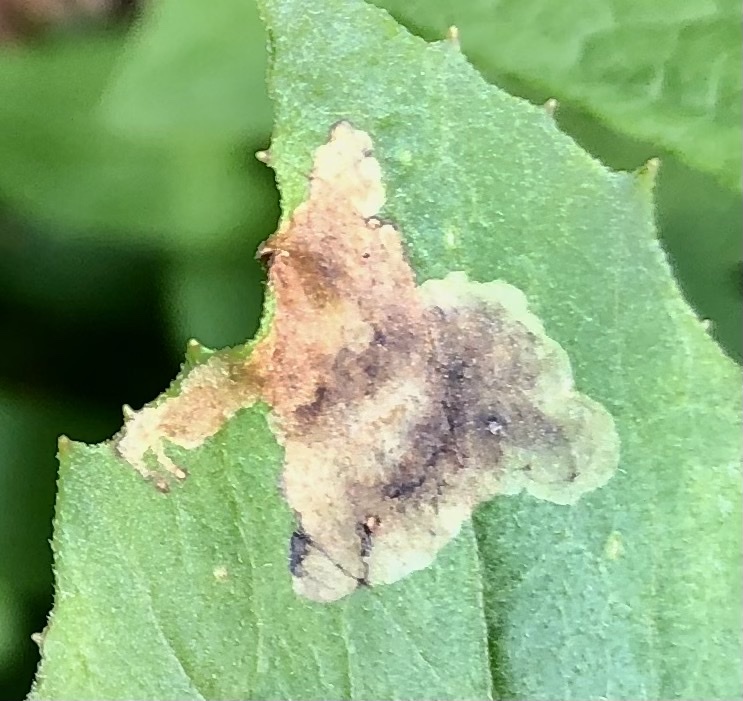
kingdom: Animalia
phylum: Arthropoda
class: Insecta
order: Diptera
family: Agromyzidae
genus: Nemorimyza
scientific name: Nemorimyza maculosa
